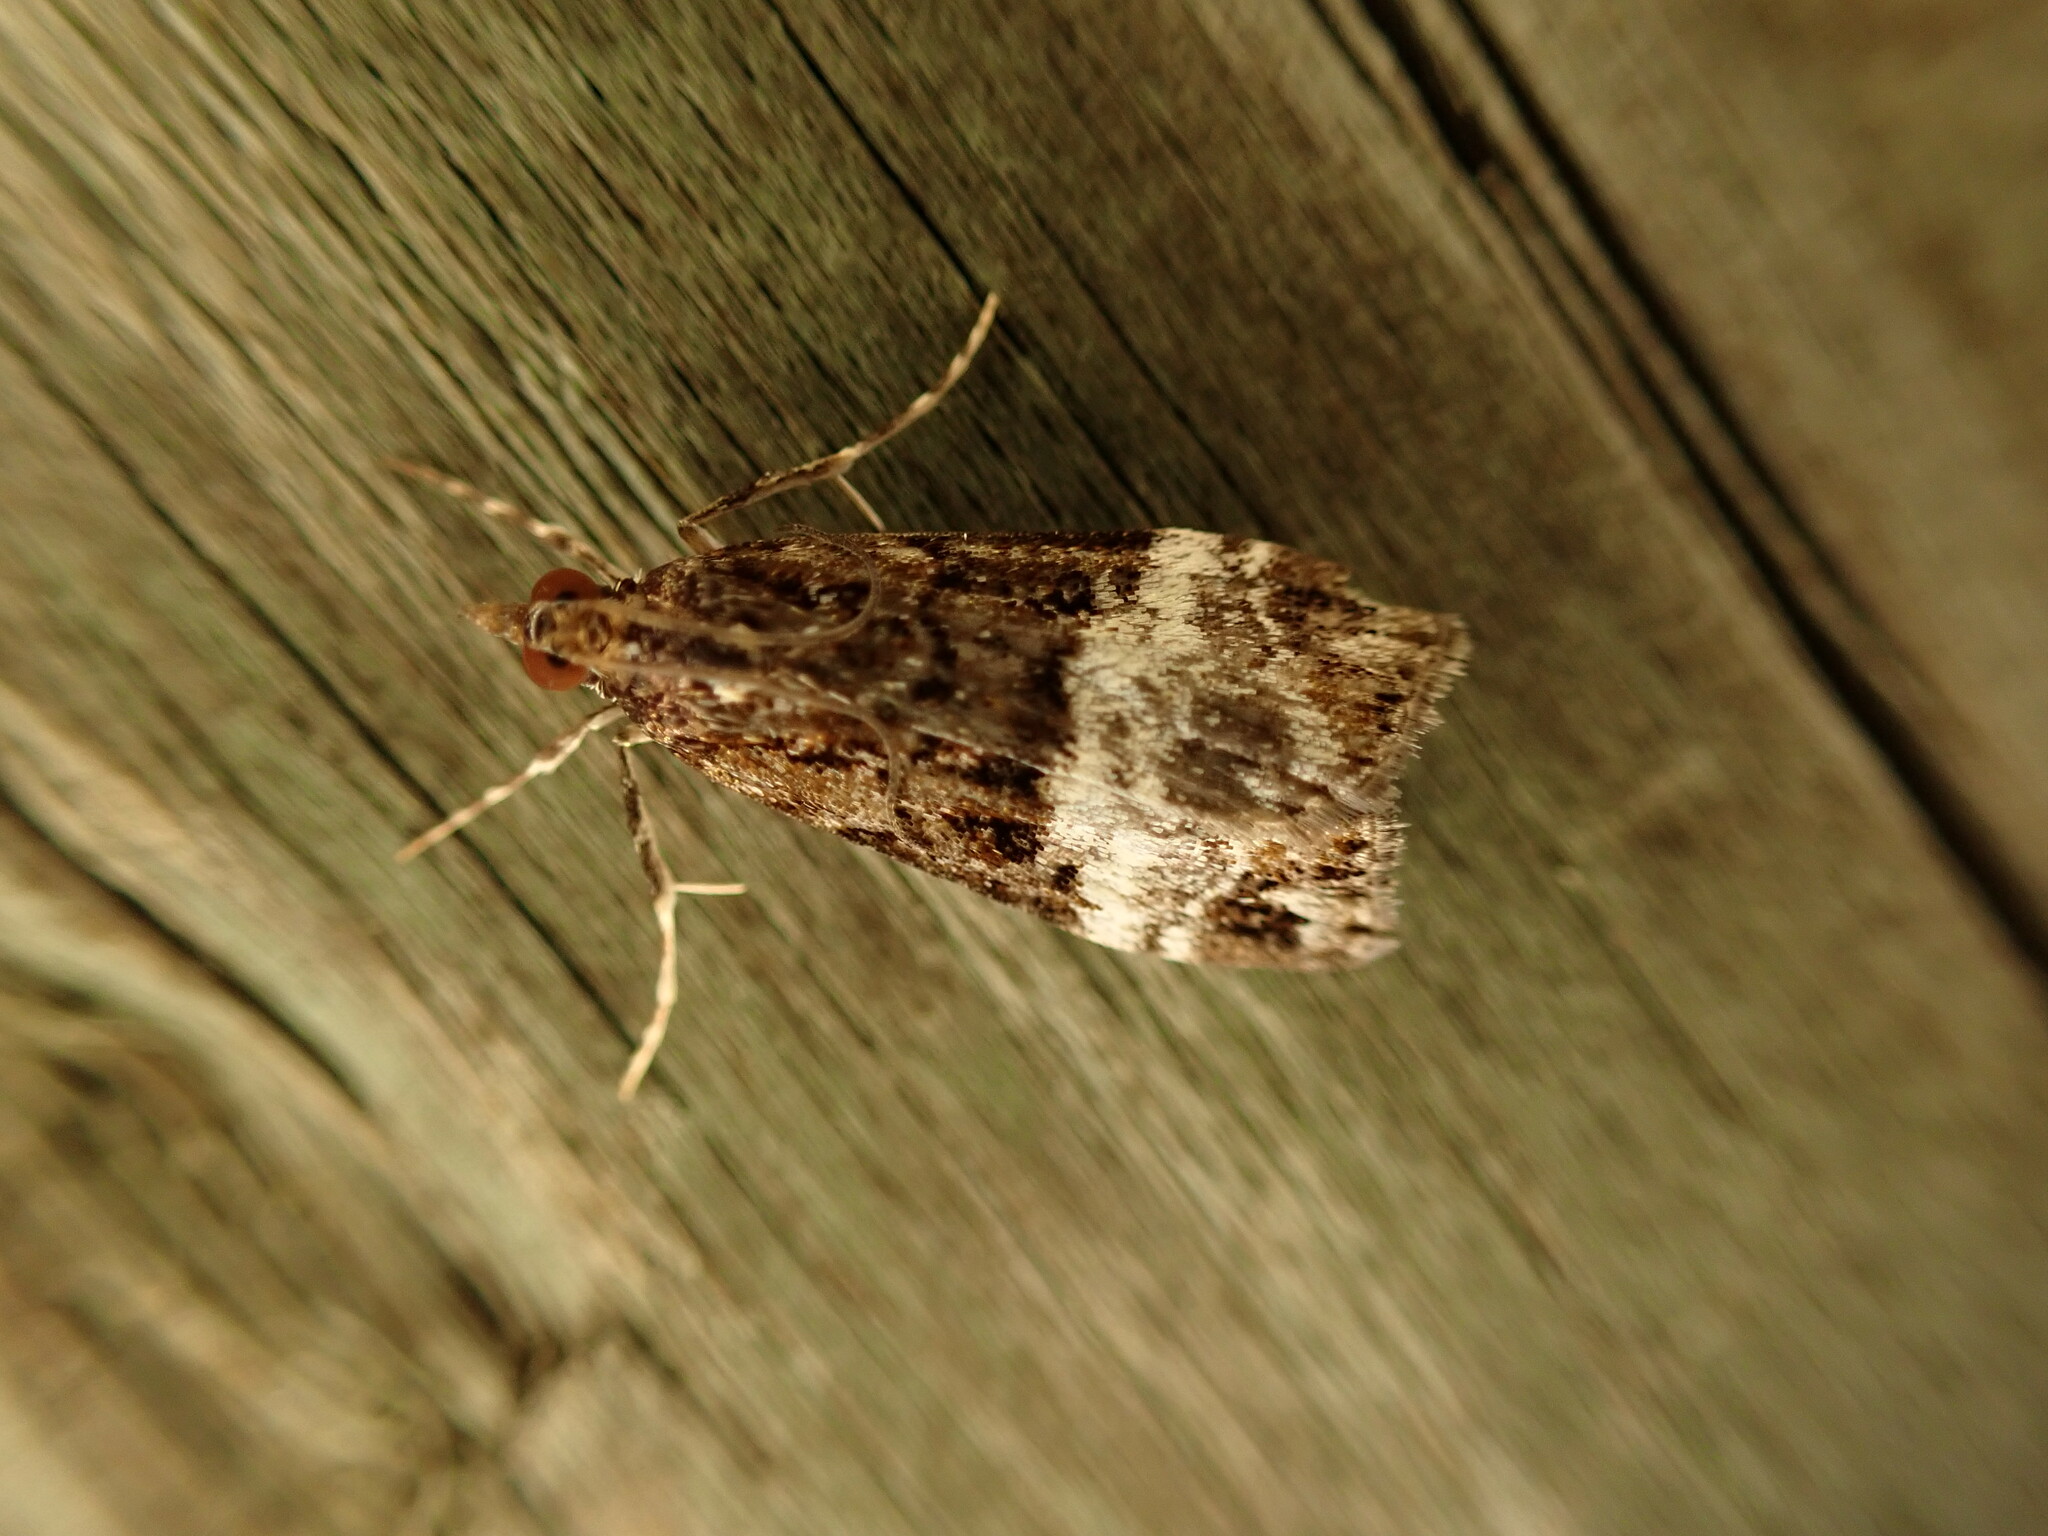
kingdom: Animalia
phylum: Arthropoda
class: Insecta
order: Lepidoptera
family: Crambidae
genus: Scoparia
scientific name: Scoparia minusculalis
